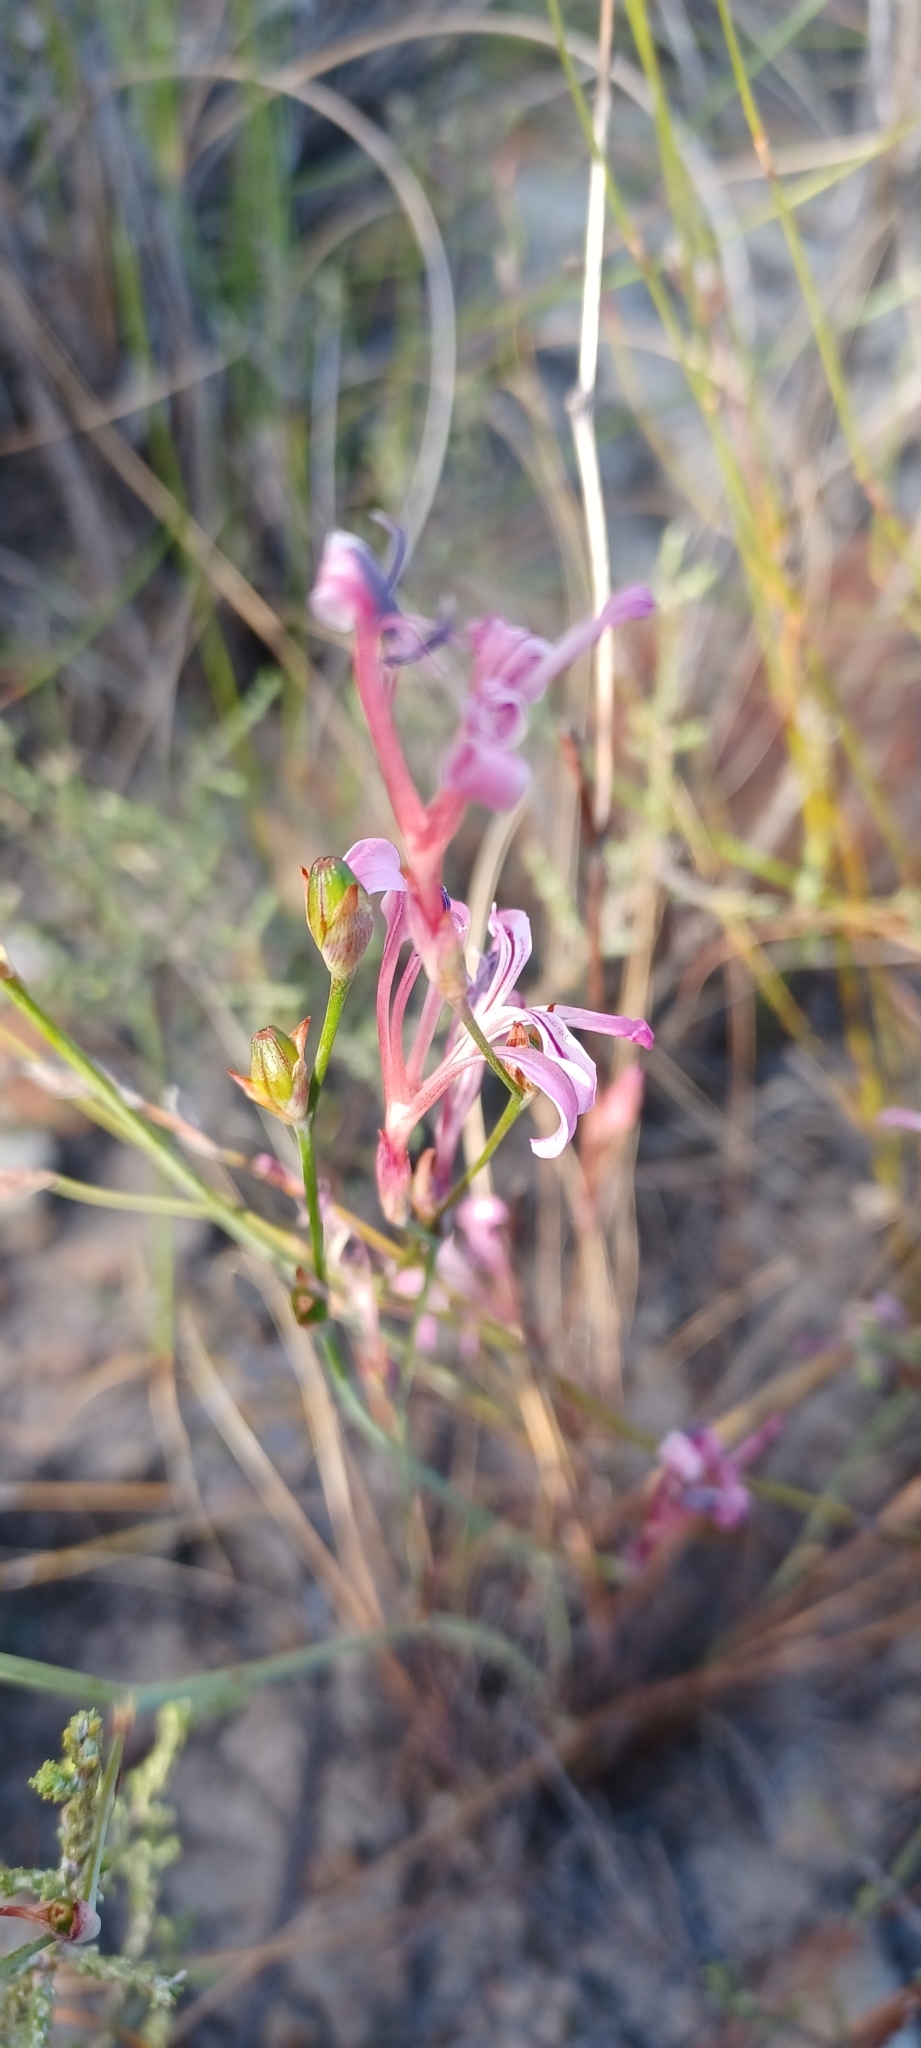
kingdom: Plantae
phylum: Tracheophyta
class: Liliopsida
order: Asparagales
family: Iridaceae
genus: Tritoniopsis
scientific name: Tritoniopsis ramosa
